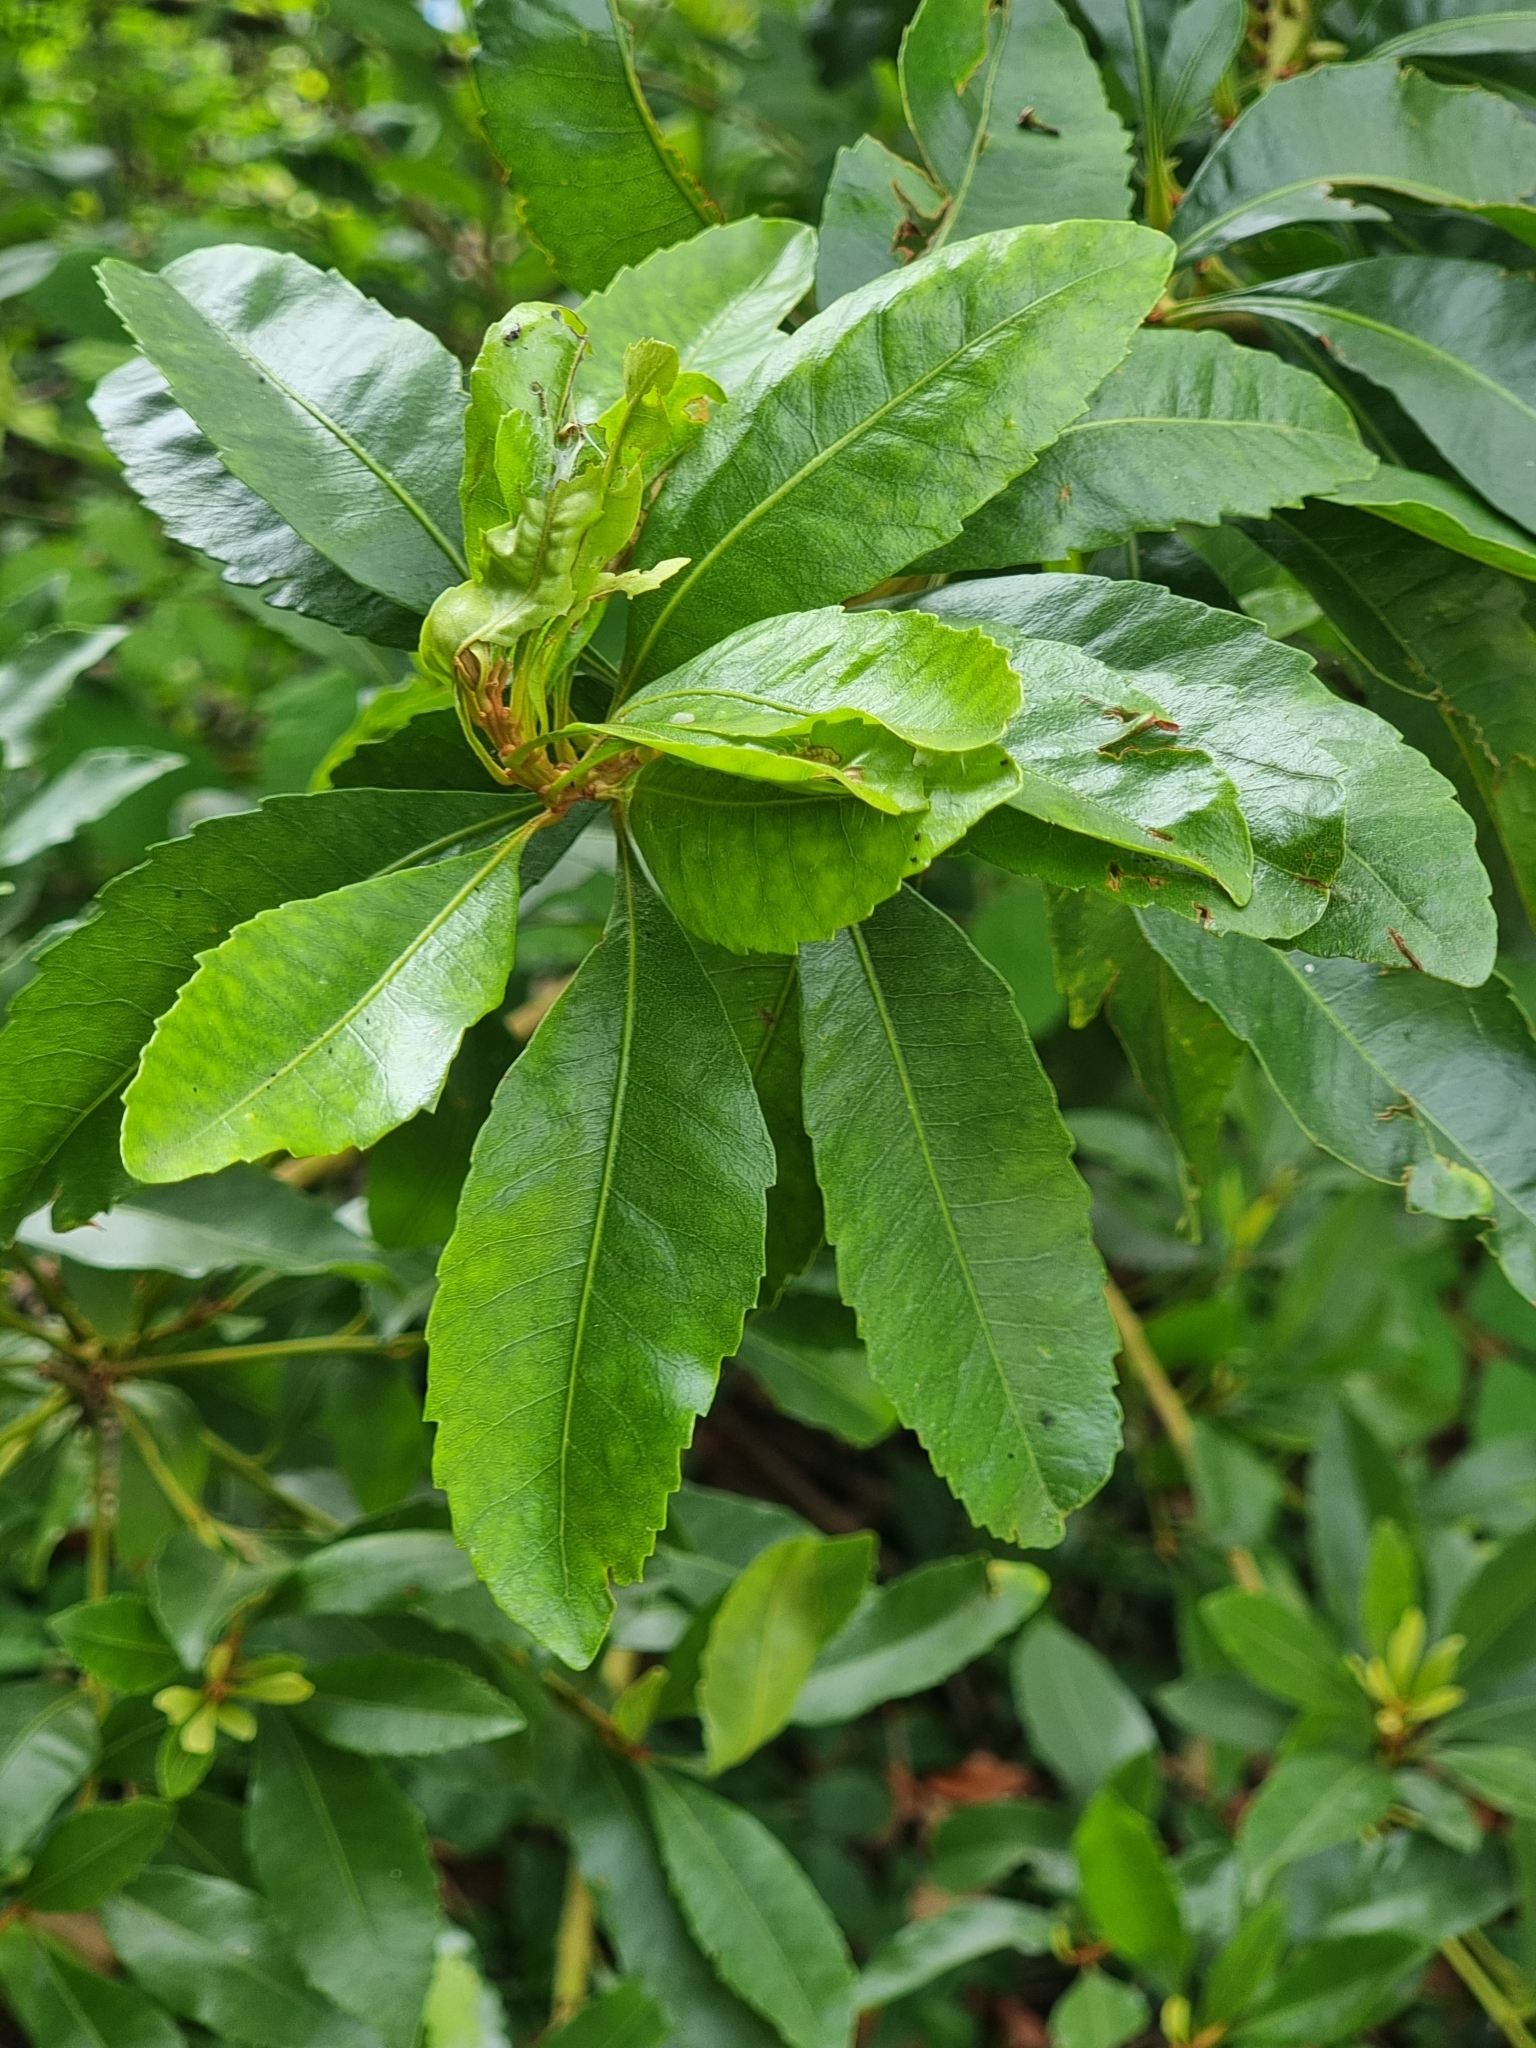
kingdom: Plantae
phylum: Tracheophyta
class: Magnoliopsida
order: Fagales
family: Myricaceae
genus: Morella
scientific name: Morella faya
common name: Firetree
